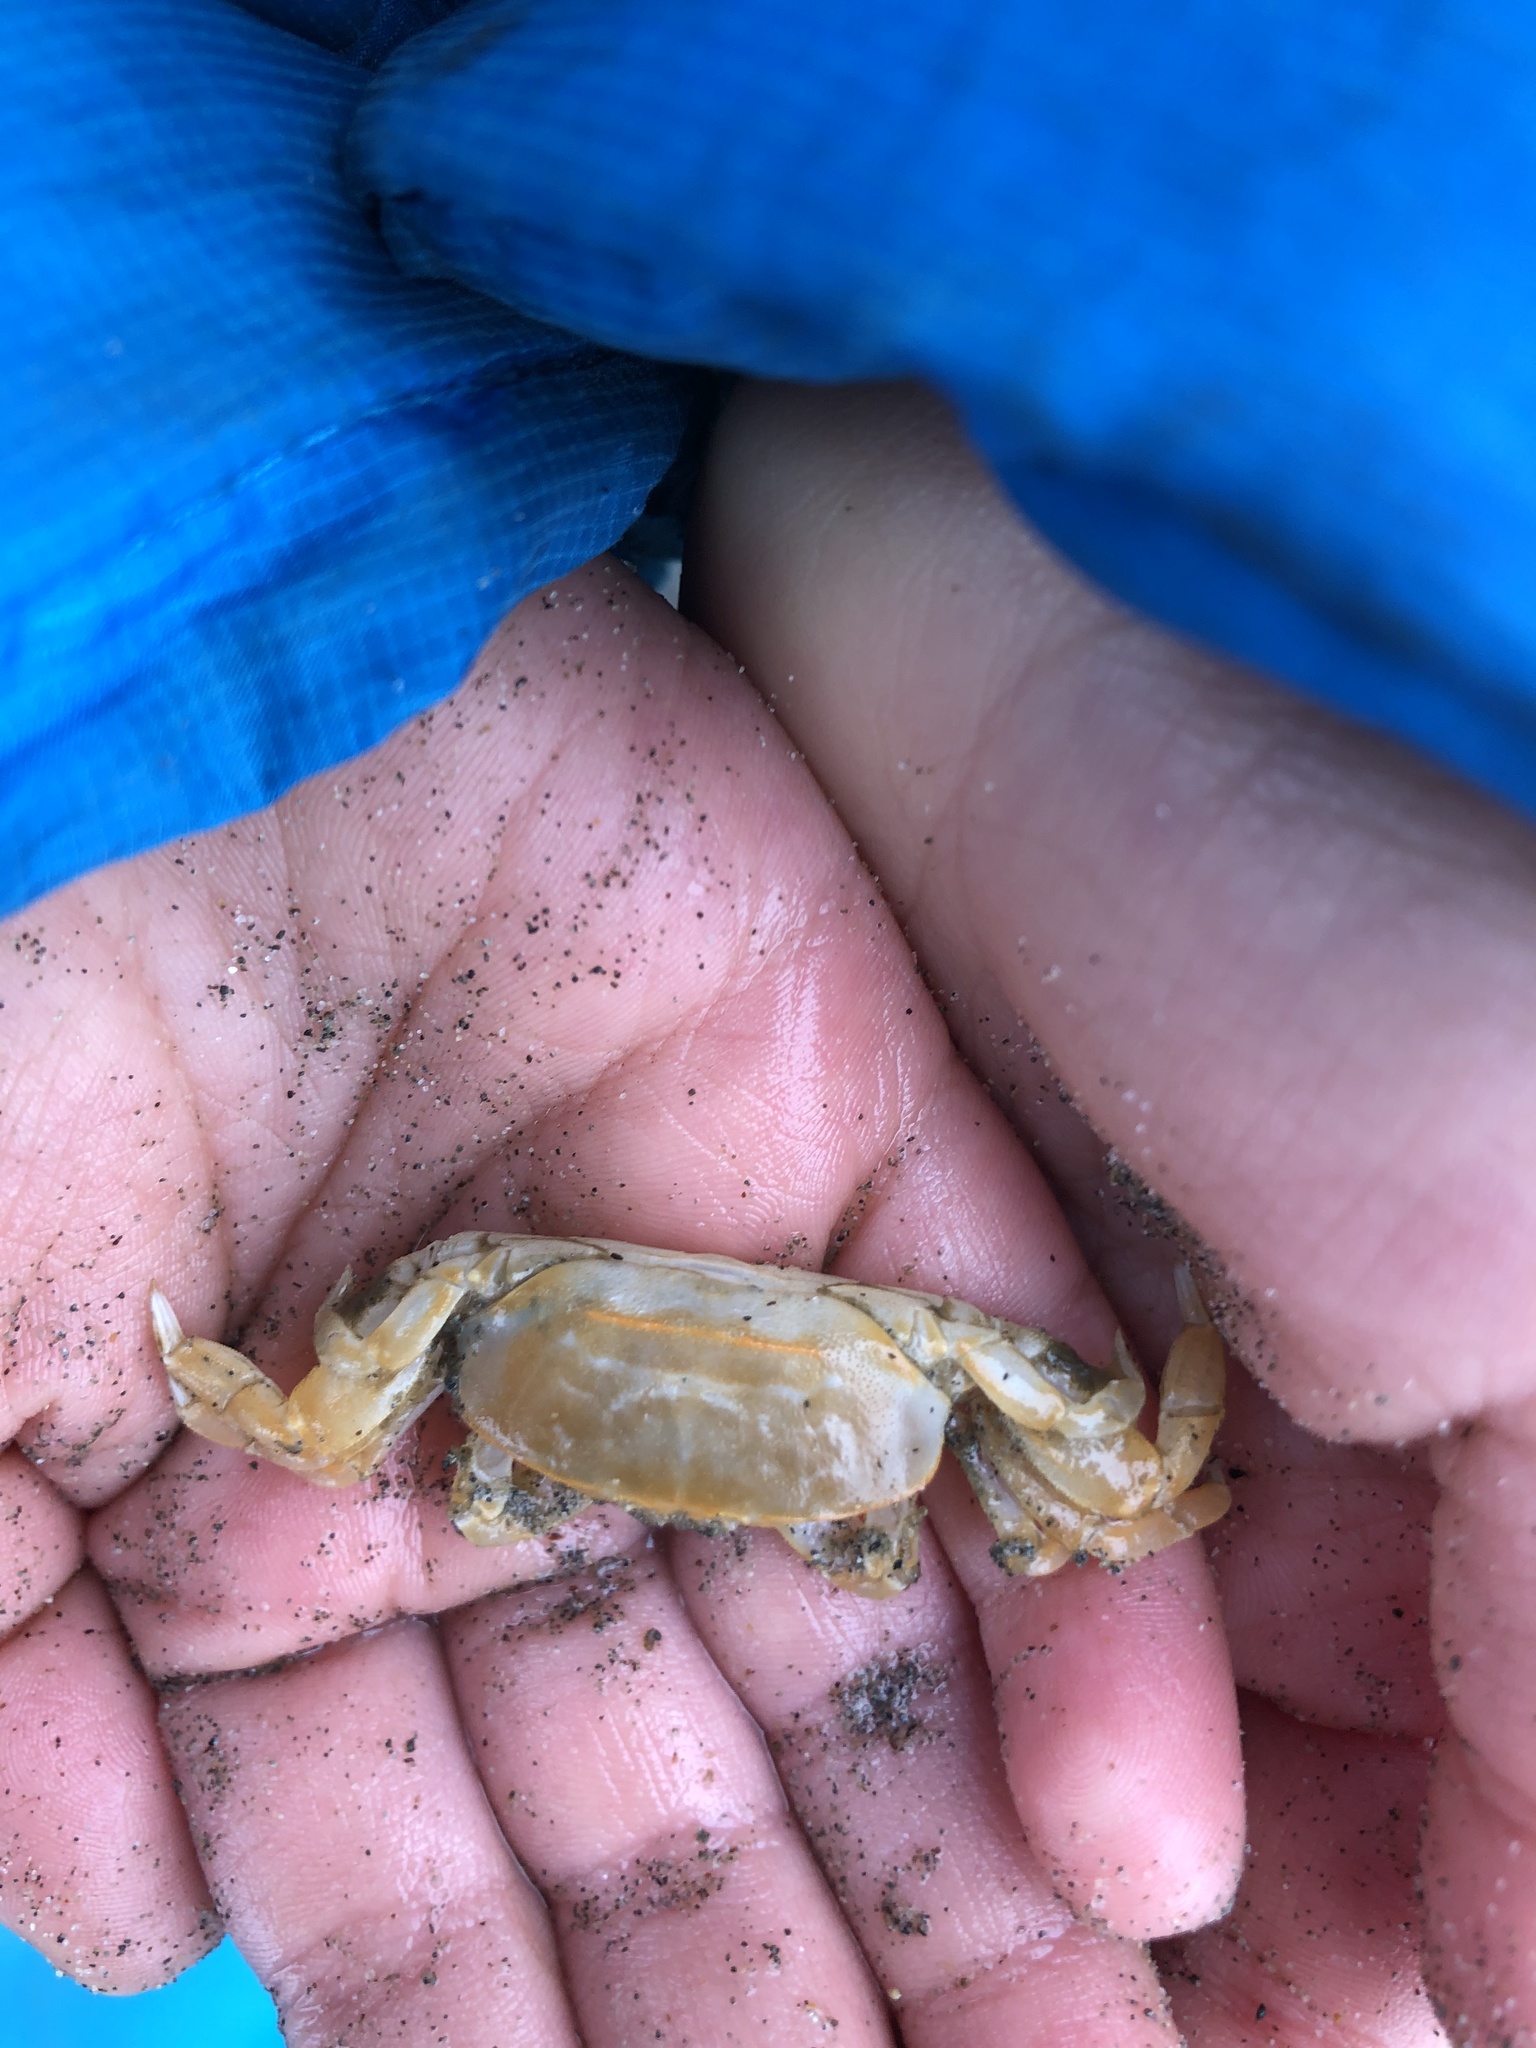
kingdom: Animalia
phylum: Arthropoda
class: Malacostraca
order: Decapoda
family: Pinnotheridae
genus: Scleroplax
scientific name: Scleroplax franciscana
